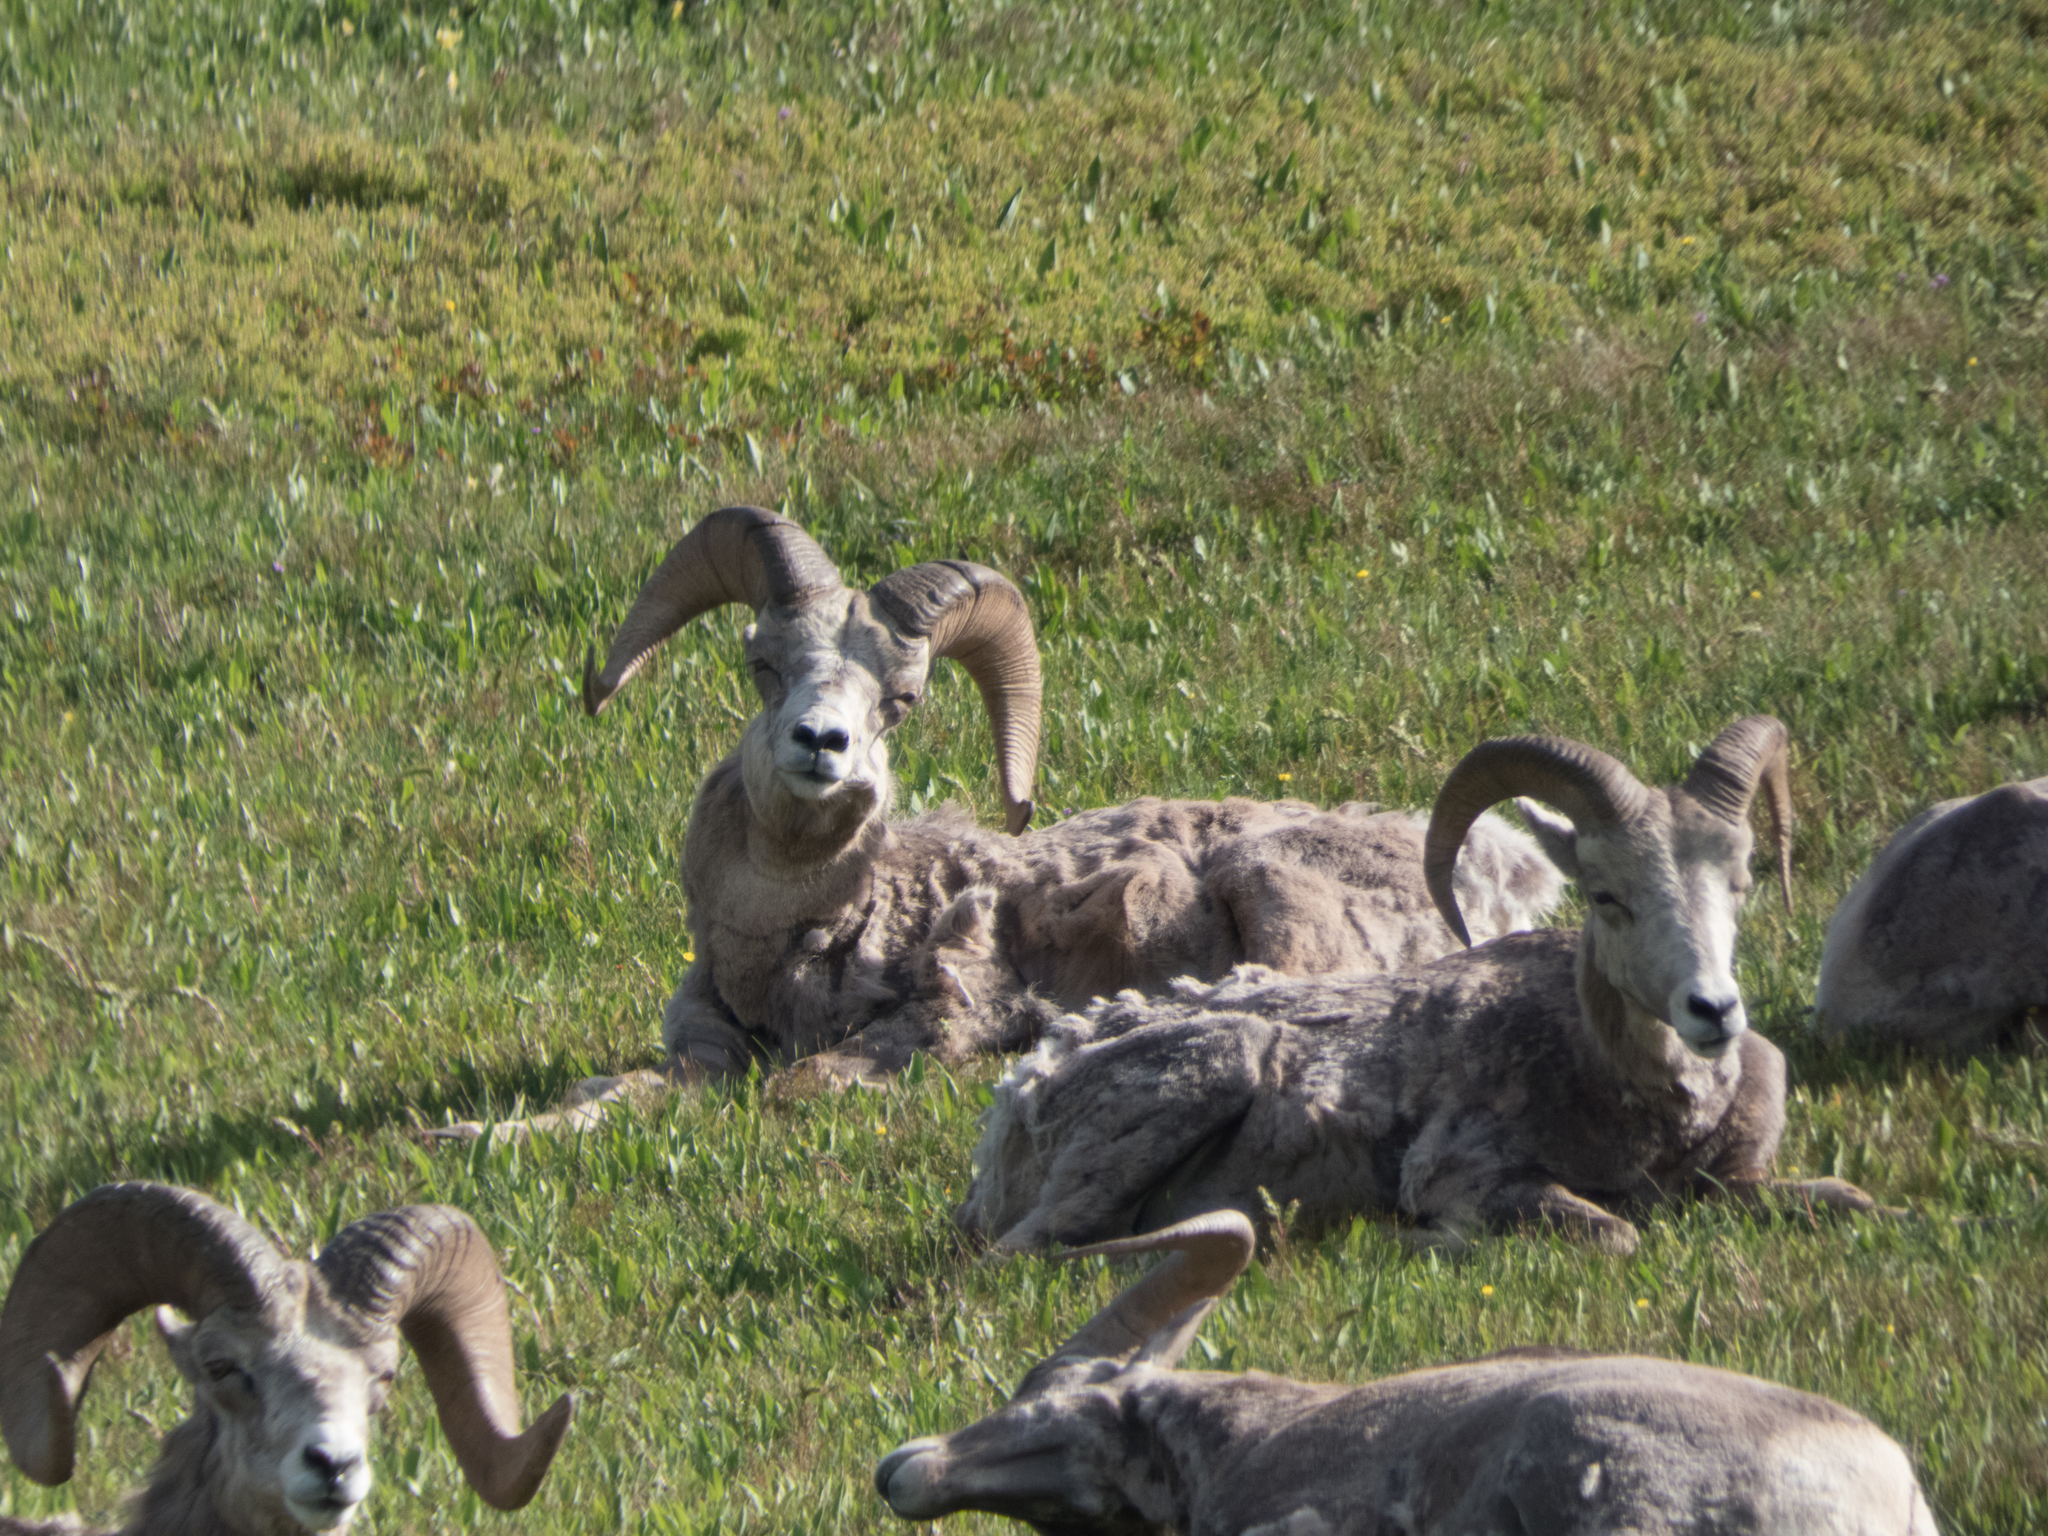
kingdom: Animalia
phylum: Chordata
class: Mammalia
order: Artiodactyla
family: Bovidae
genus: Ovis
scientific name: Ovis canadensis
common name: Bighorn sheep
